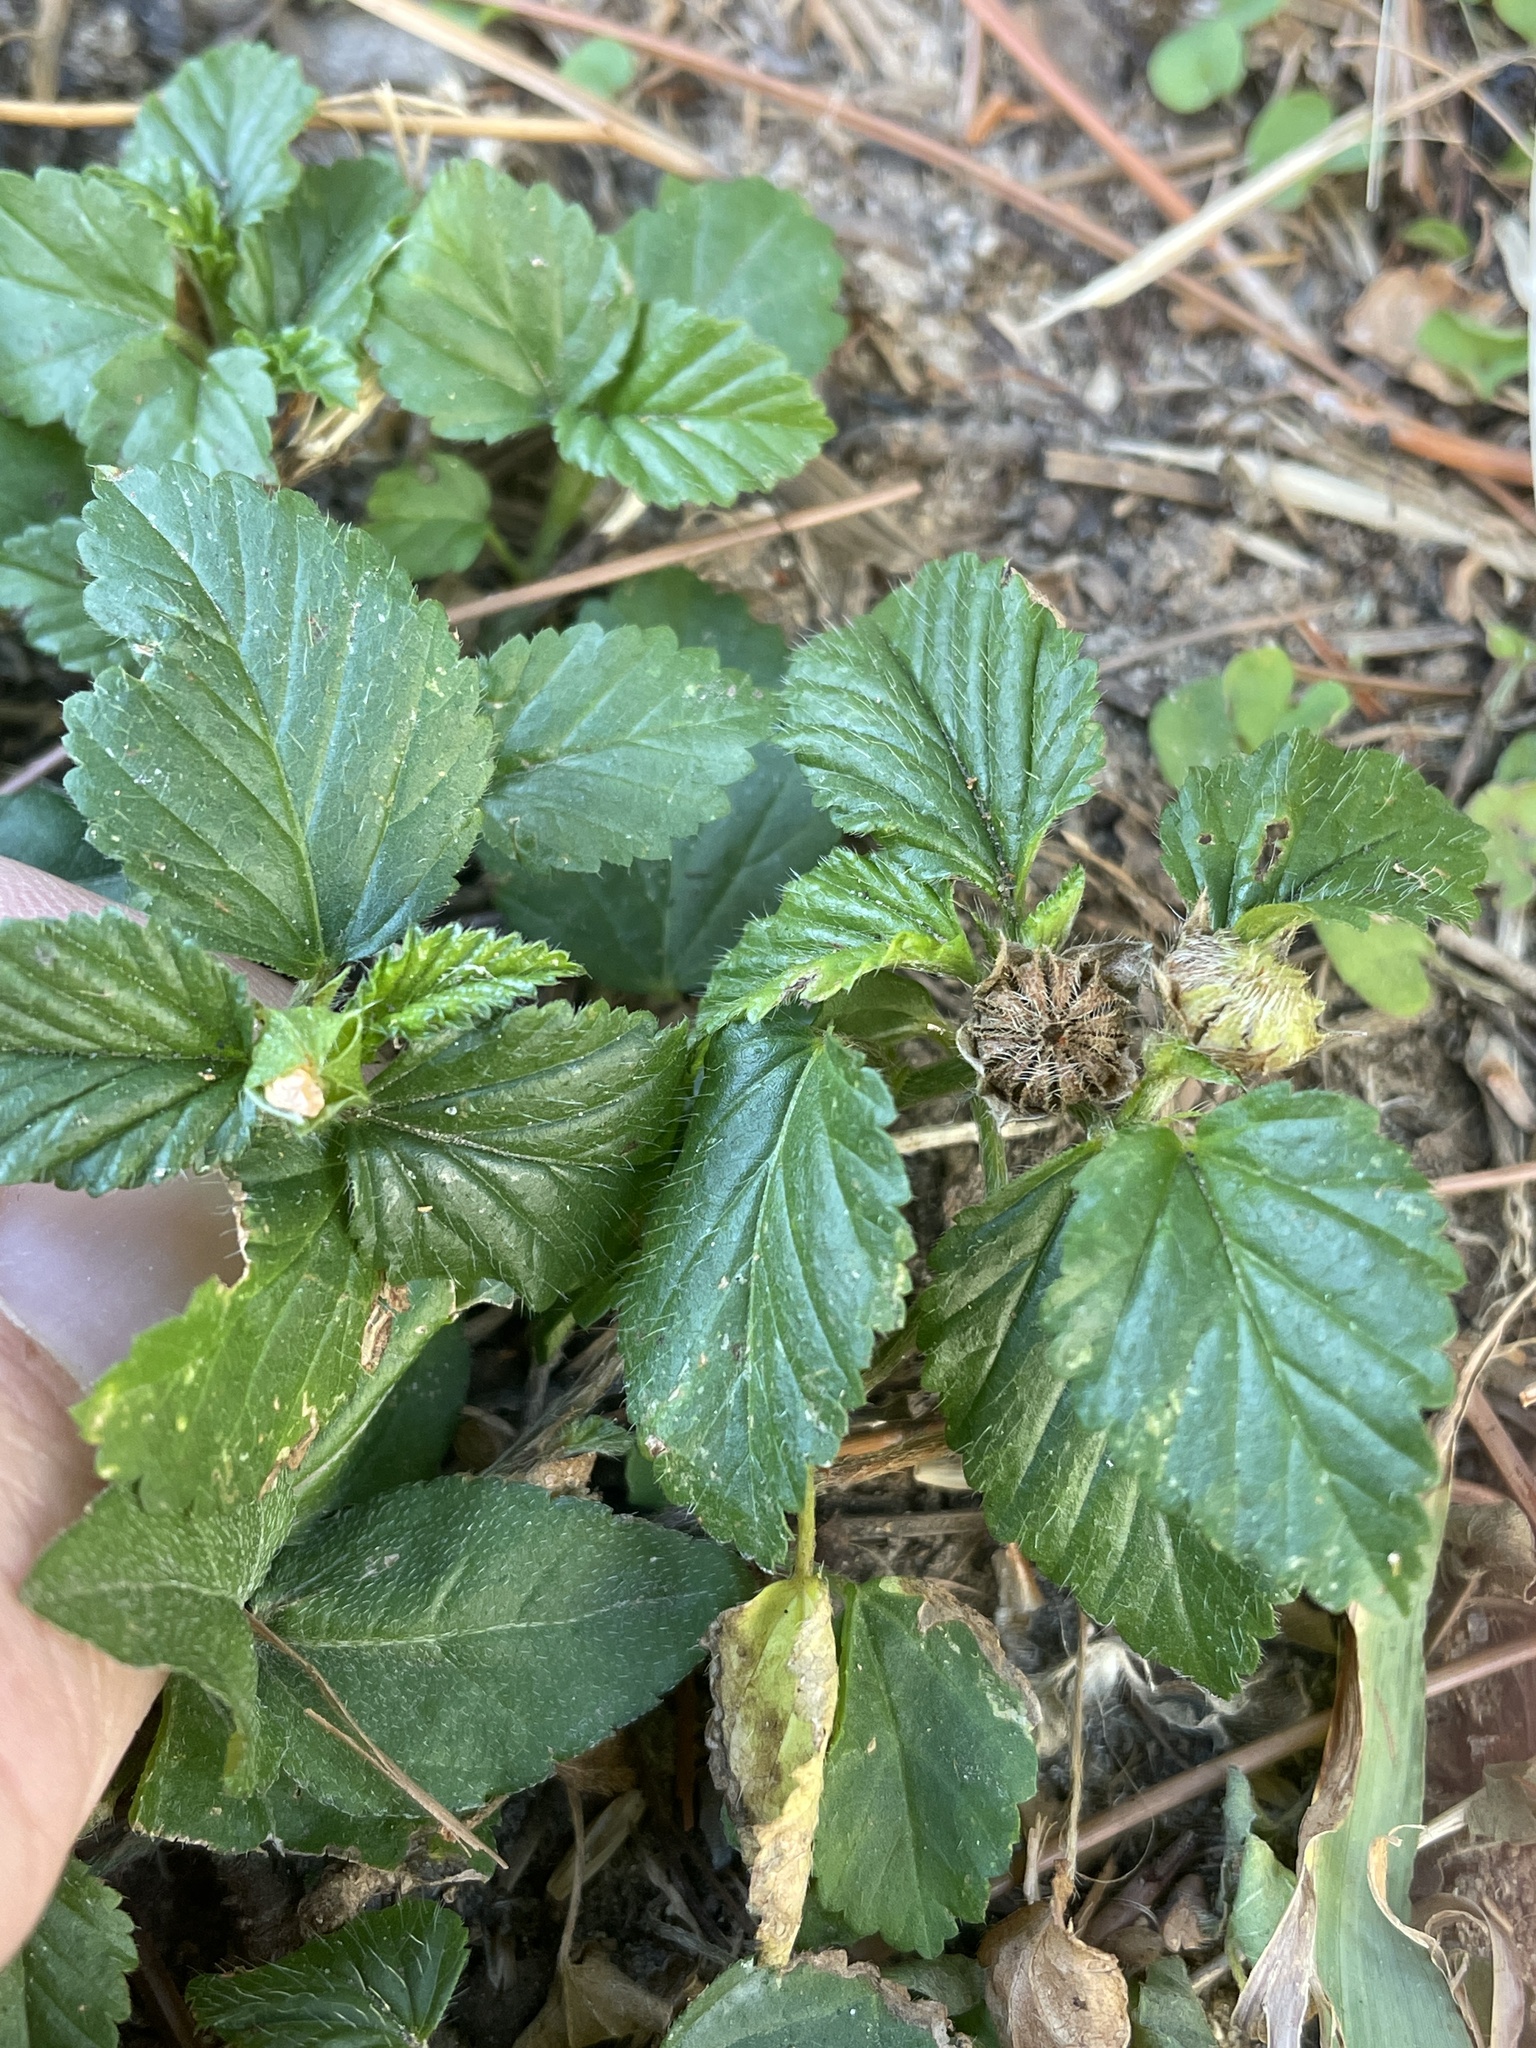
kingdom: Plantae
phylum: Tracheophyta
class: Magnoliopsida
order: Malvales
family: Malvaceae
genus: Malvastrum
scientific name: Malvastrum coromandelianum
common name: Threelobe false mallow
